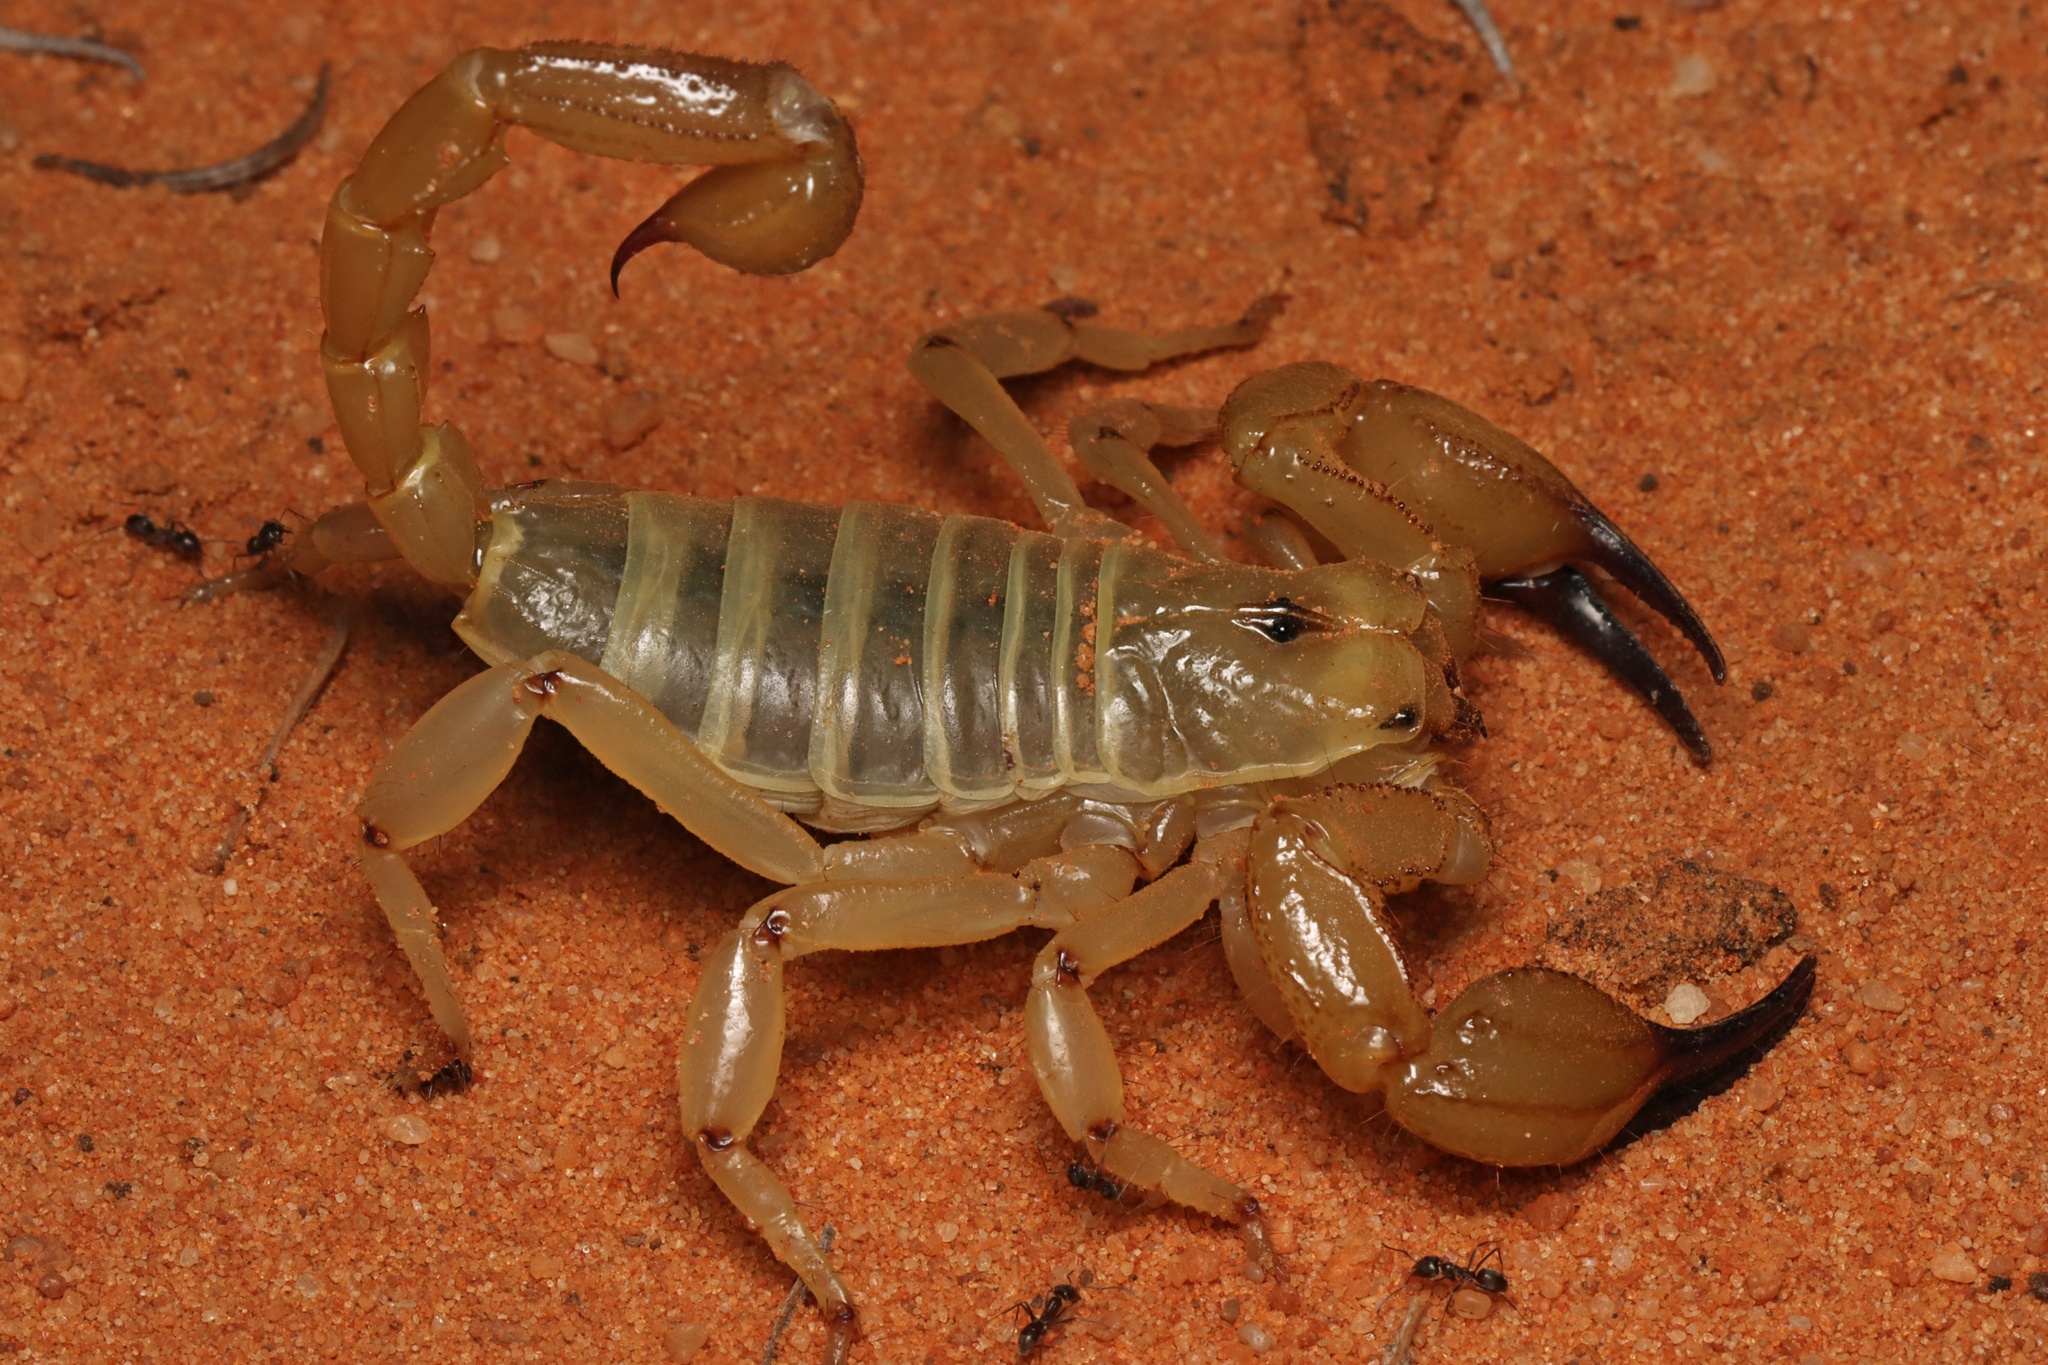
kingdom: Animalia
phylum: Arthropoda
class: Arachnida
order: Scorpiones
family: Scorpionidae
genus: Urodacus
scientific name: Urodacus yaschenkoi
